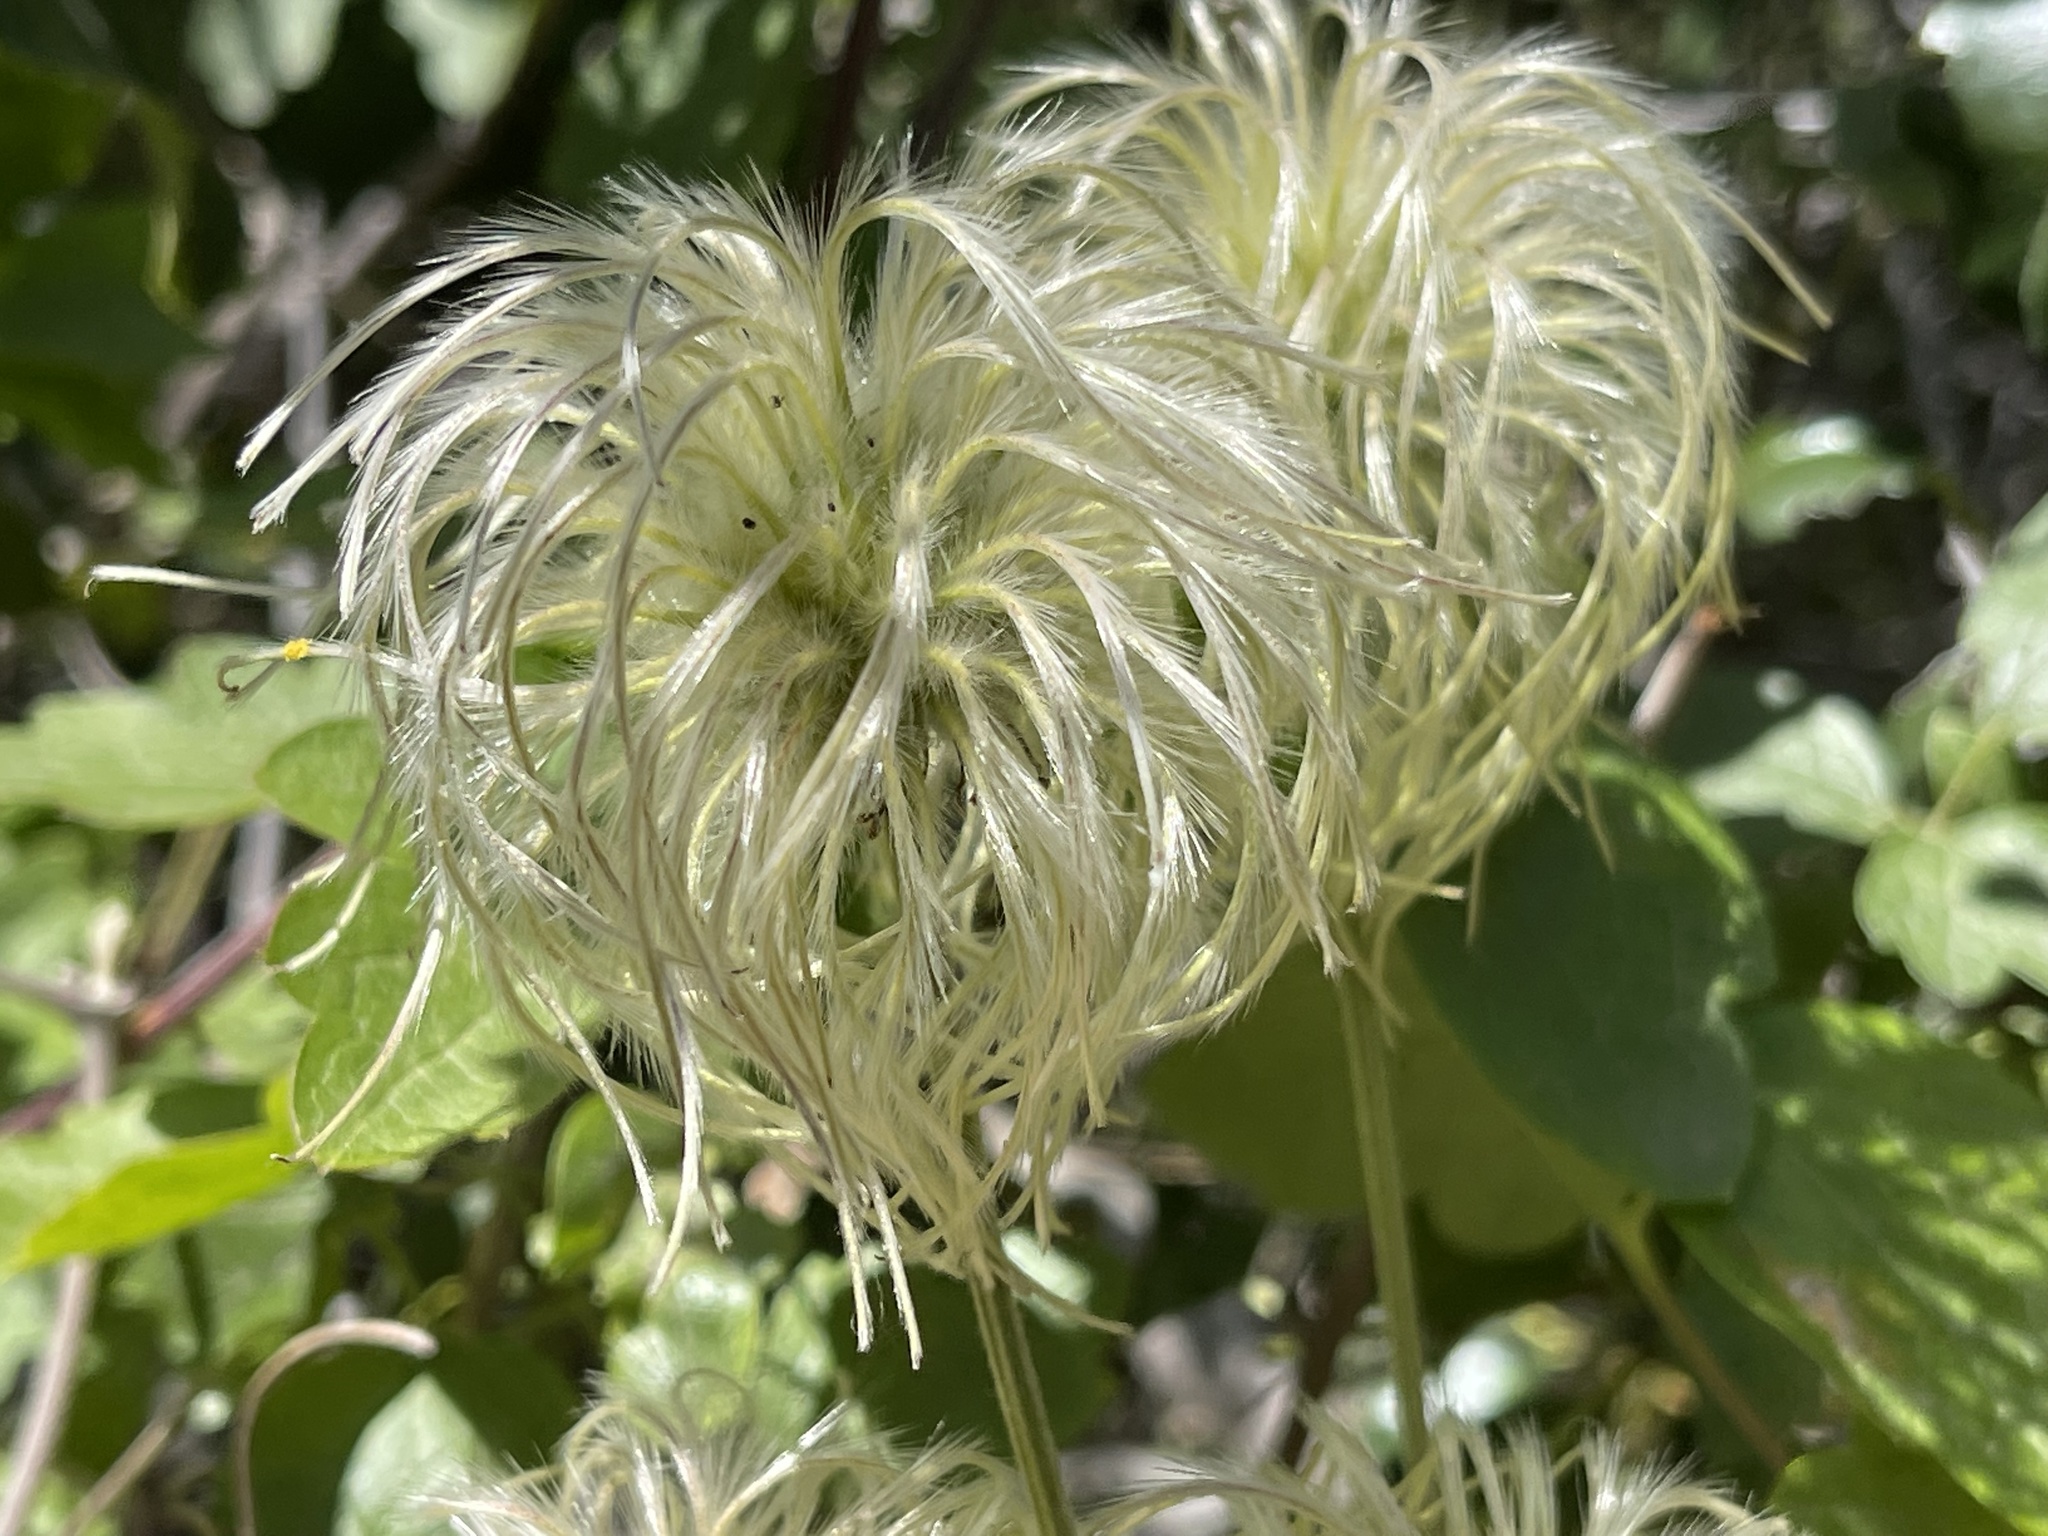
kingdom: Plantae
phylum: Tracheophyta
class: Magnoliopsida
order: Ranunculales
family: Ranunculaceae
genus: Clematis
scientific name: Clematis lasiantha
